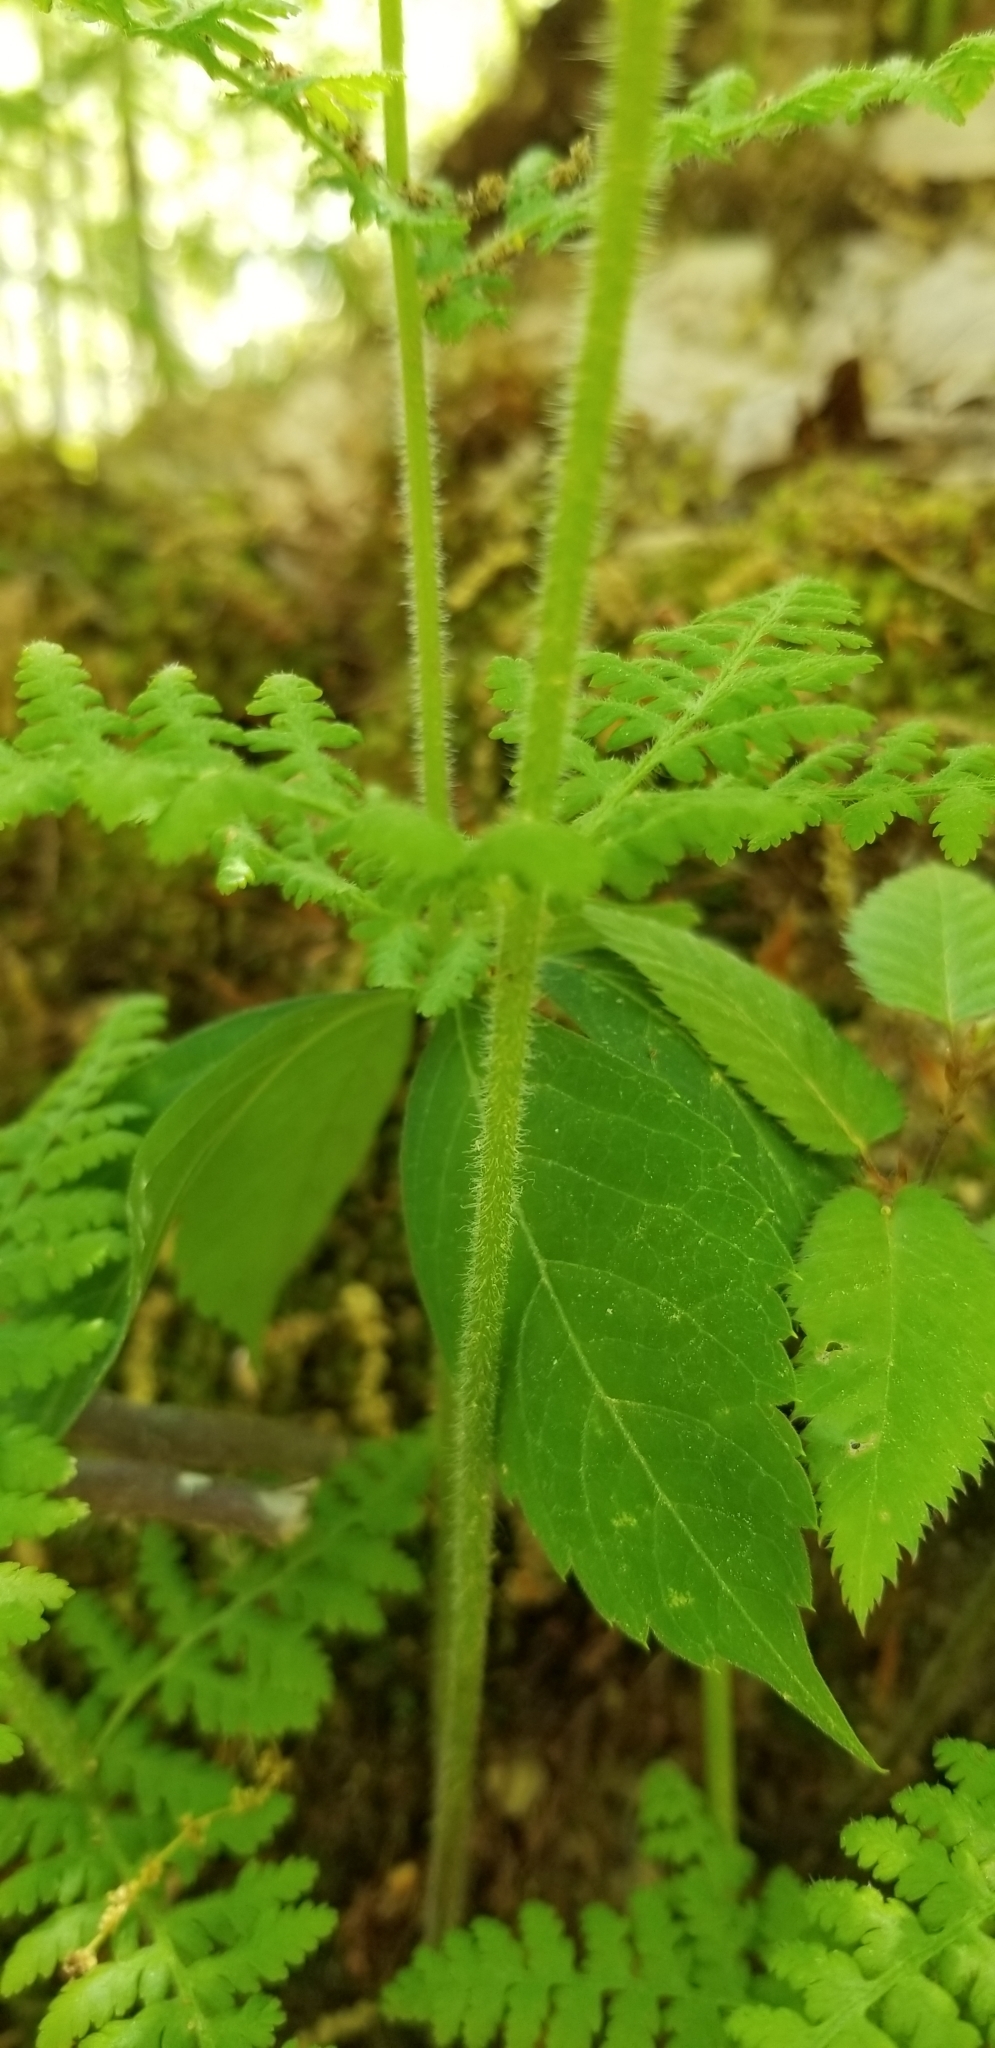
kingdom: Plantae
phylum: Tracheophyta
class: Polypodiopsida
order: Polypodiales
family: Dennstaedtiaceae
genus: Sitobolium
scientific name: Sitobolium punctilobum
